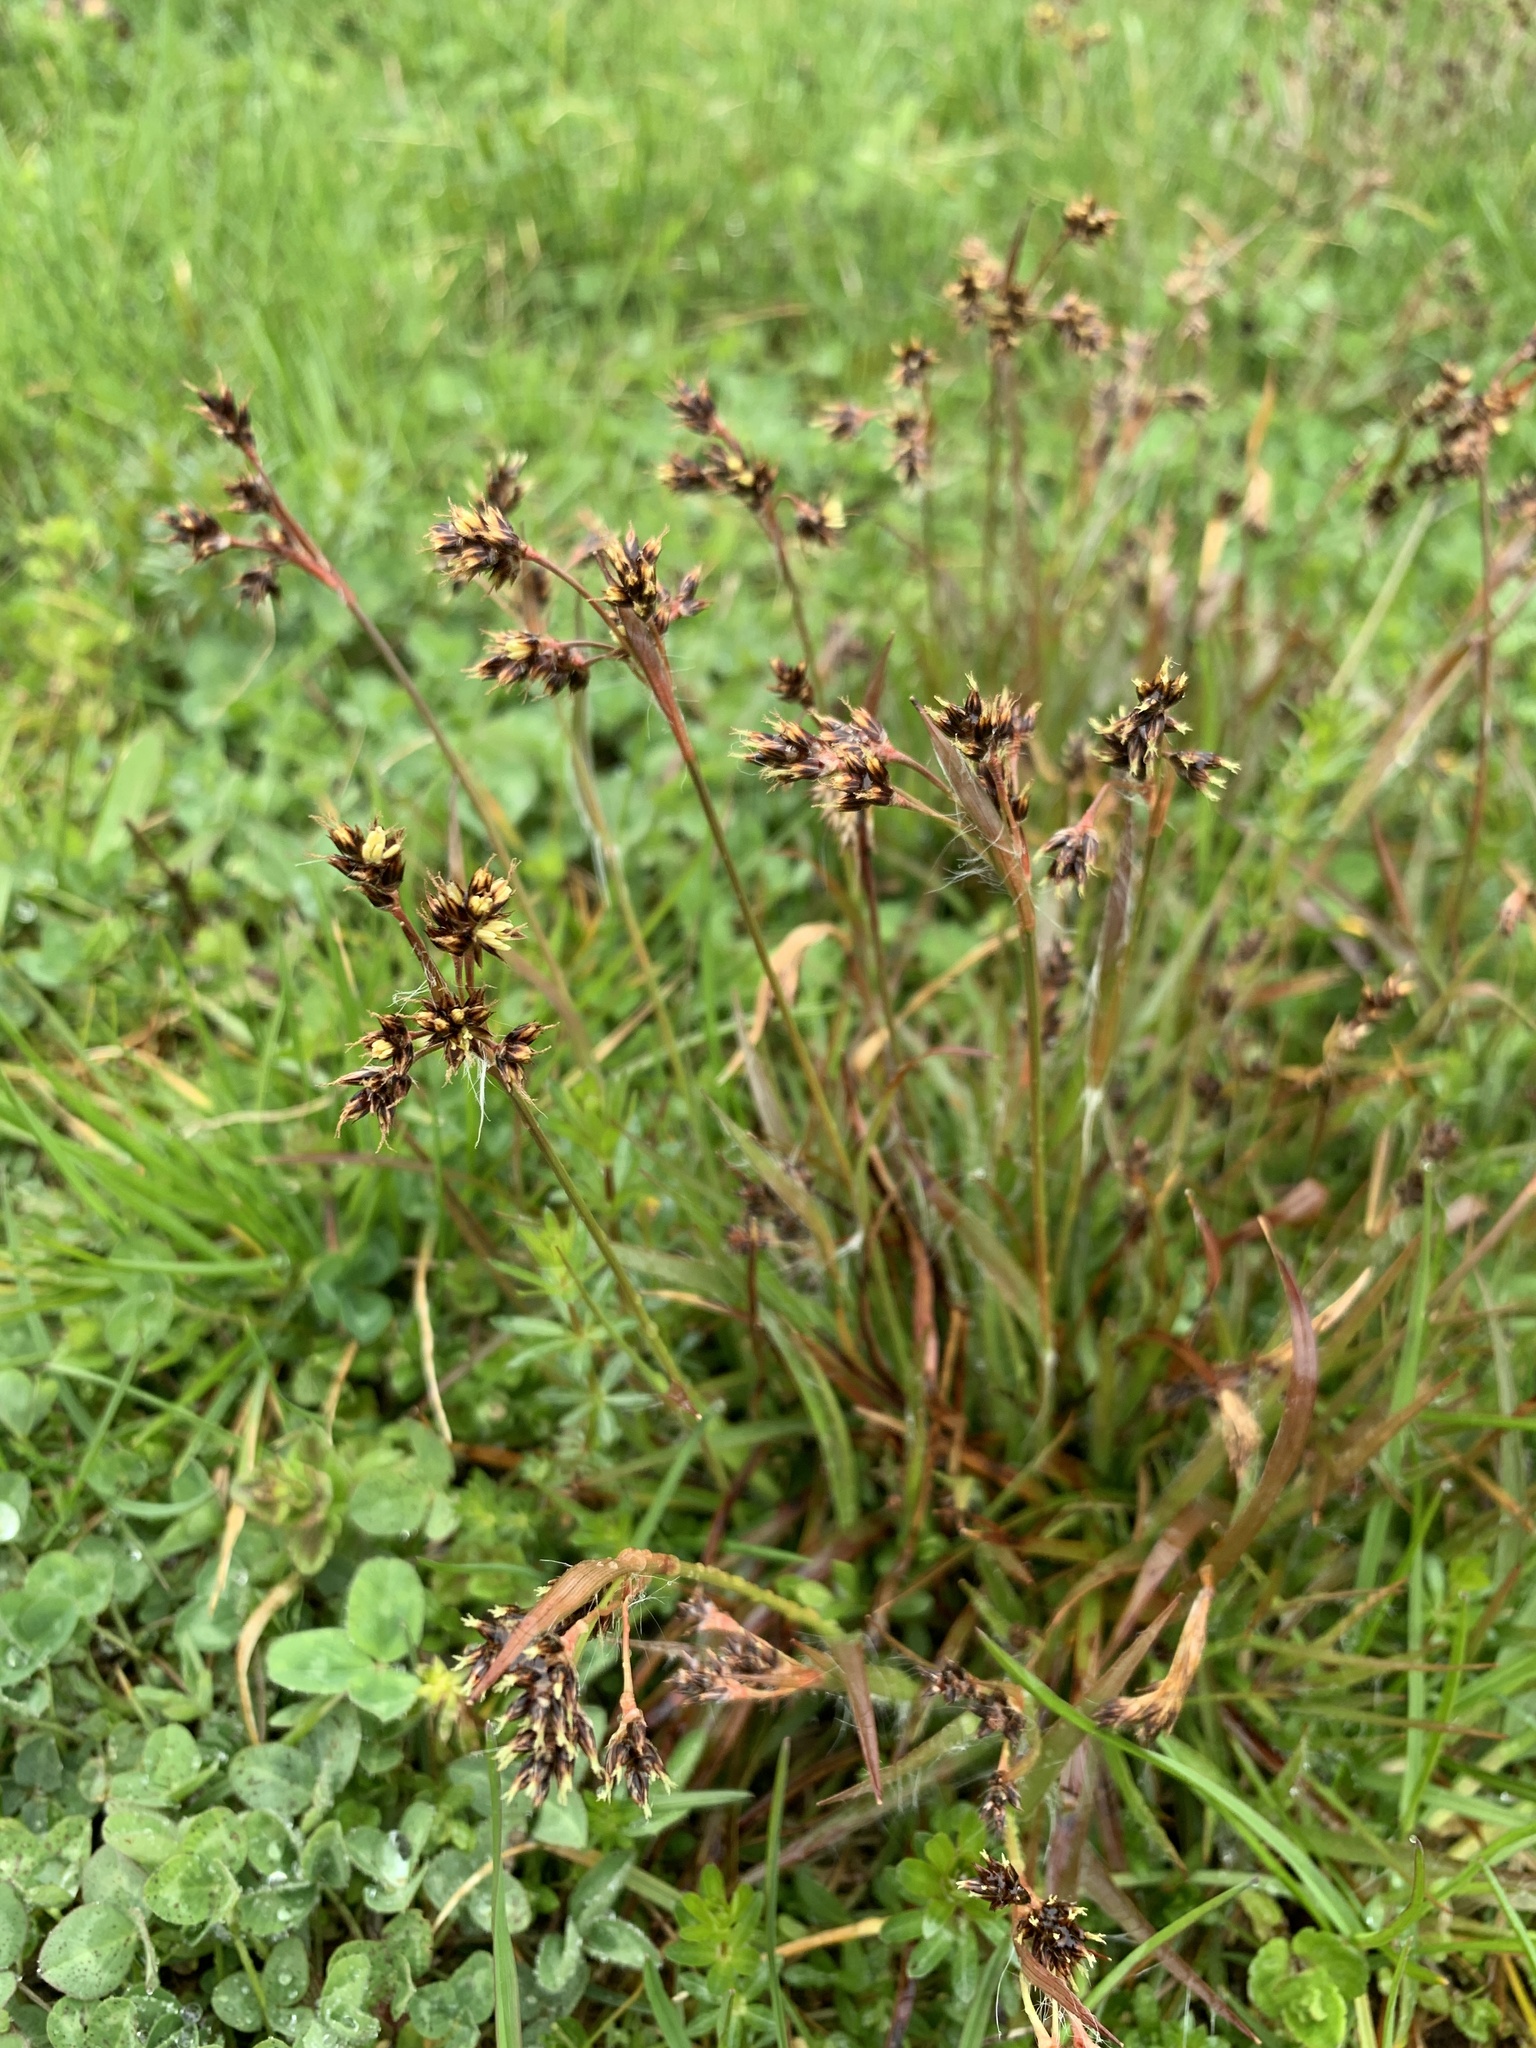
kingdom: Plantae
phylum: Tracheophyta
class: Liliopsida
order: Poales
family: Juncaceae
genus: Luzula
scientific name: Luzula campestris
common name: Field wood-rush
